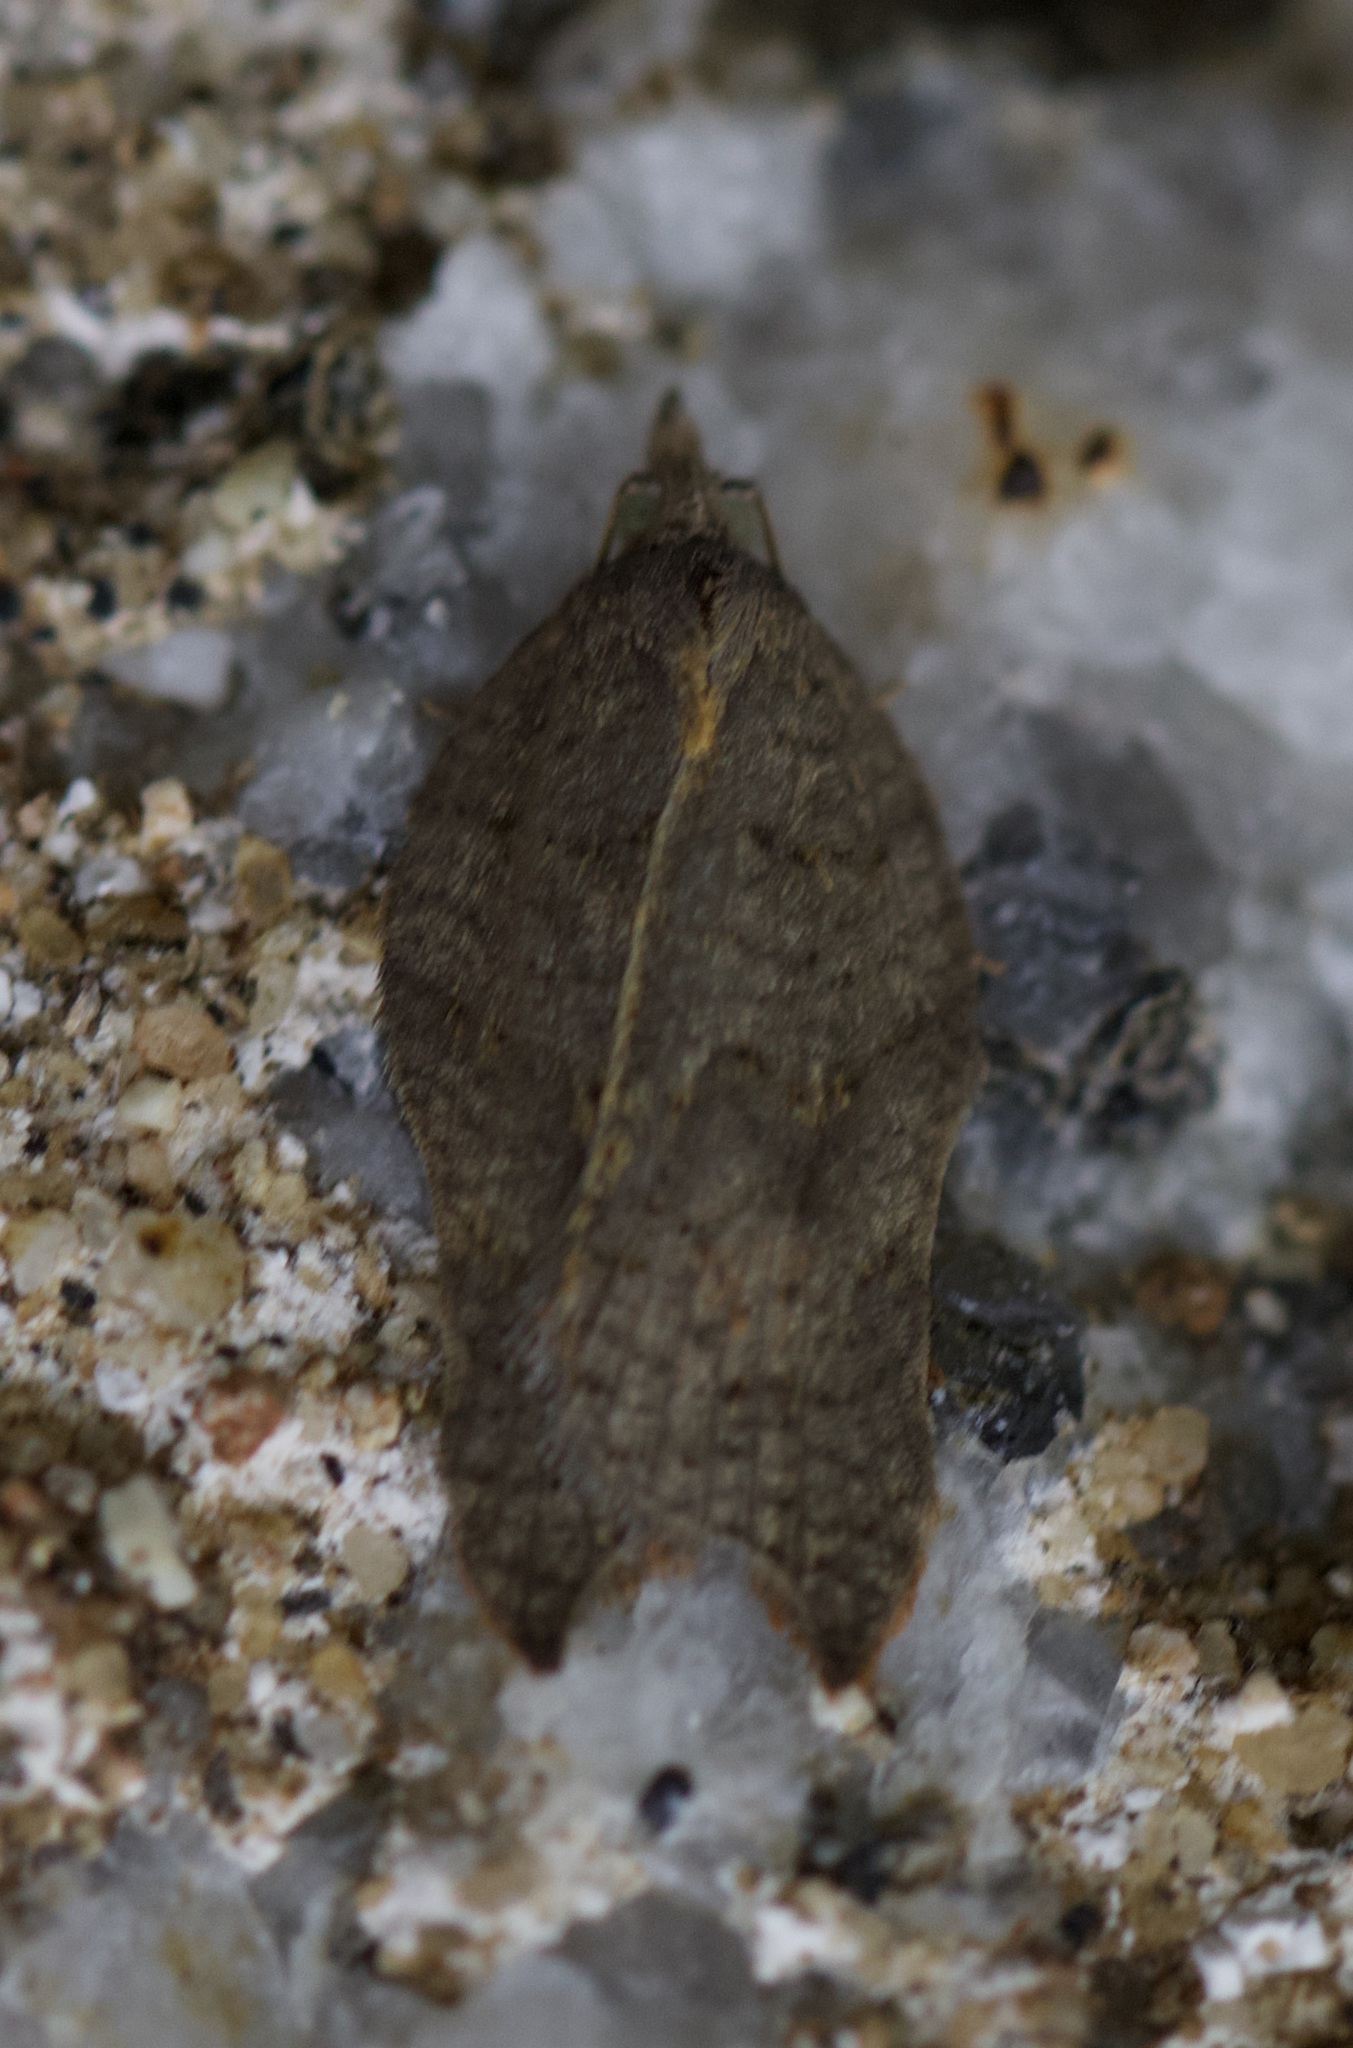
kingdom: Animalia
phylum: Arthropoda
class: Insecta
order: Lepidoptera
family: Tortricidae
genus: Acleris
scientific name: Acleris effractana
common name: Hook-winged tortrix moth
